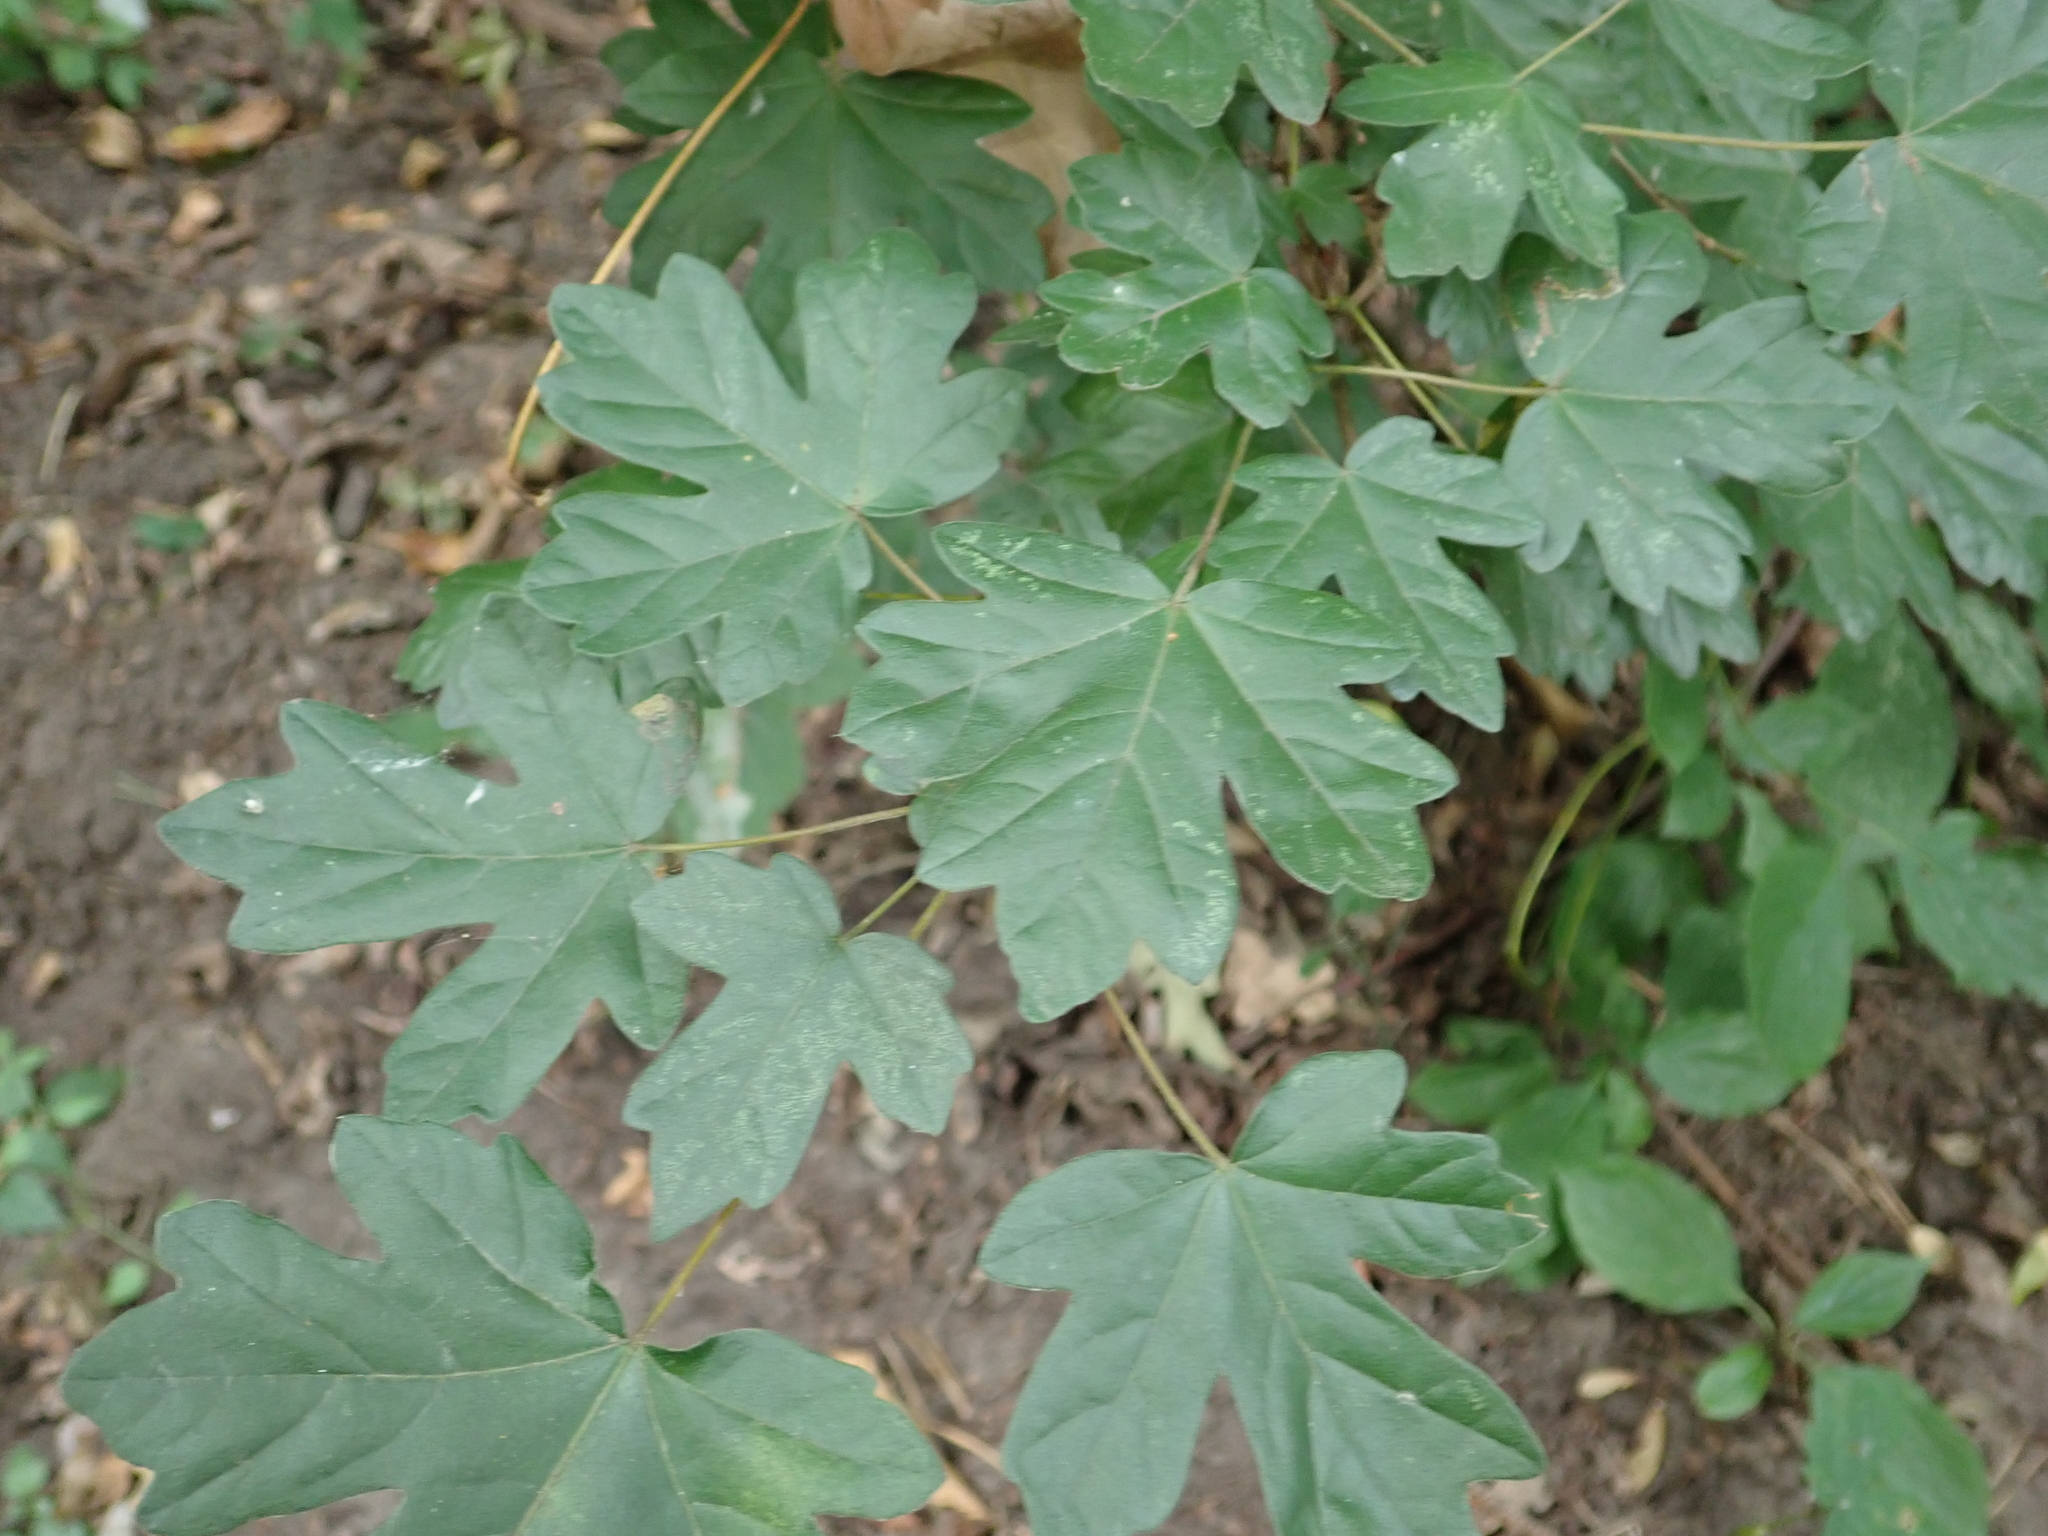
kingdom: Plantae
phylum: Tracheophyta
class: Magnoliopsida
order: Sapindales
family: Sapindaceae
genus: Acer
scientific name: Acer campestre
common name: Field maple
